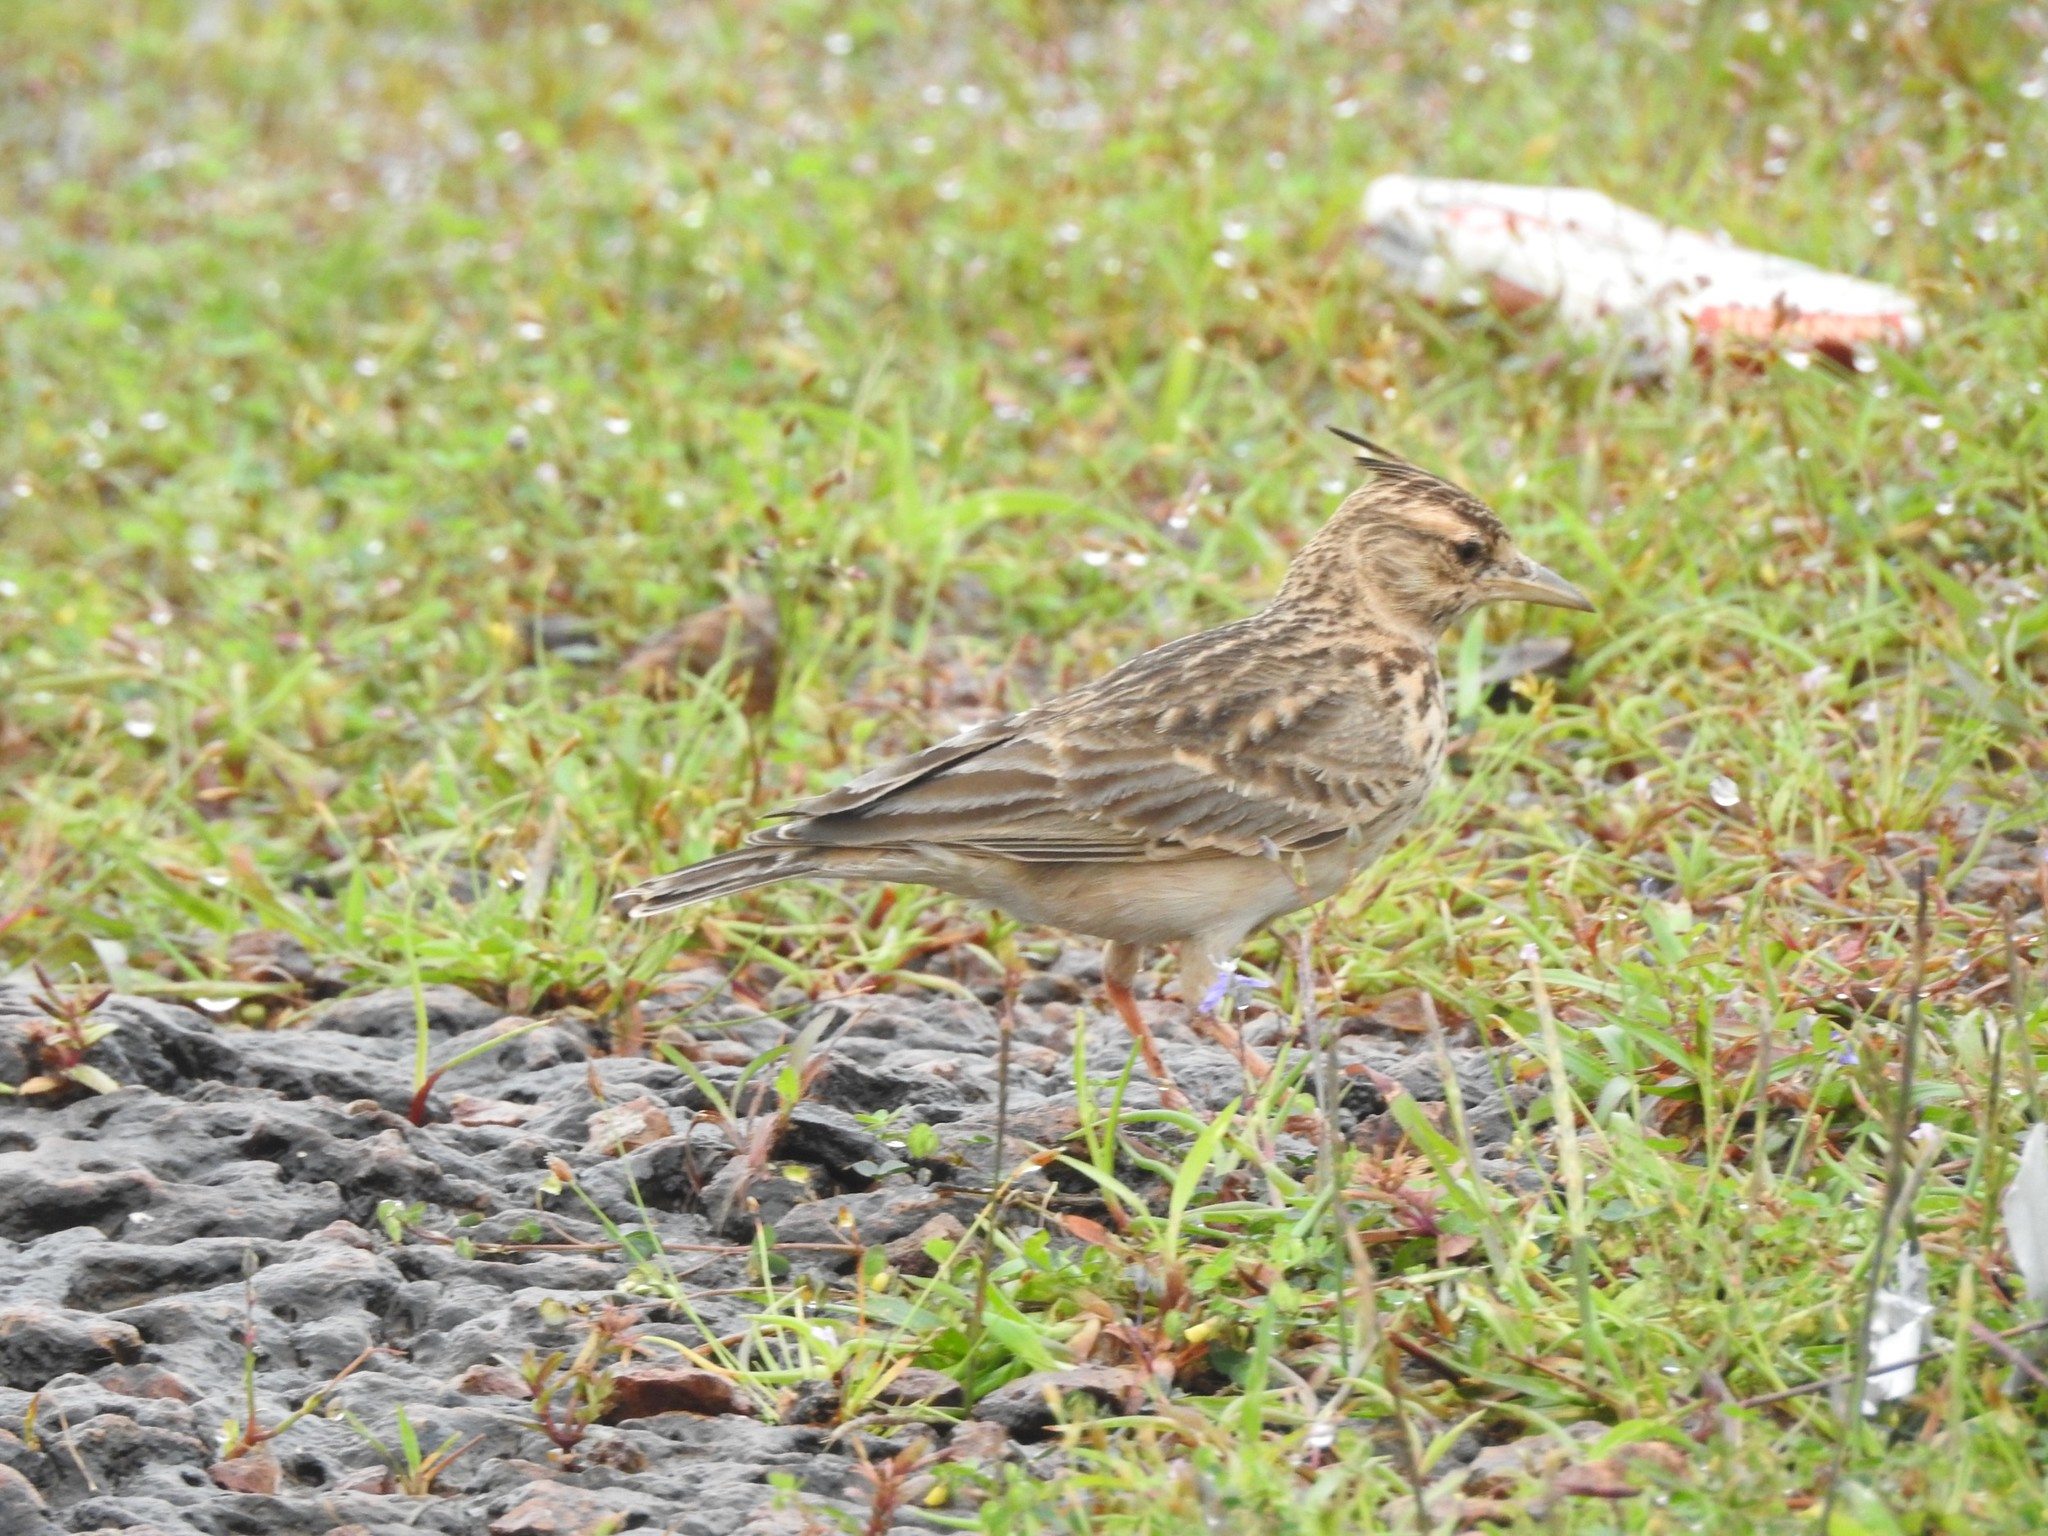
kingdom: Animalia
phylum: Chordata
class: Aves
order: Passeriformes
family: Alaudidae
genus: Galerida
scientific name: Galerida malabarica
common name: Malabar lark
